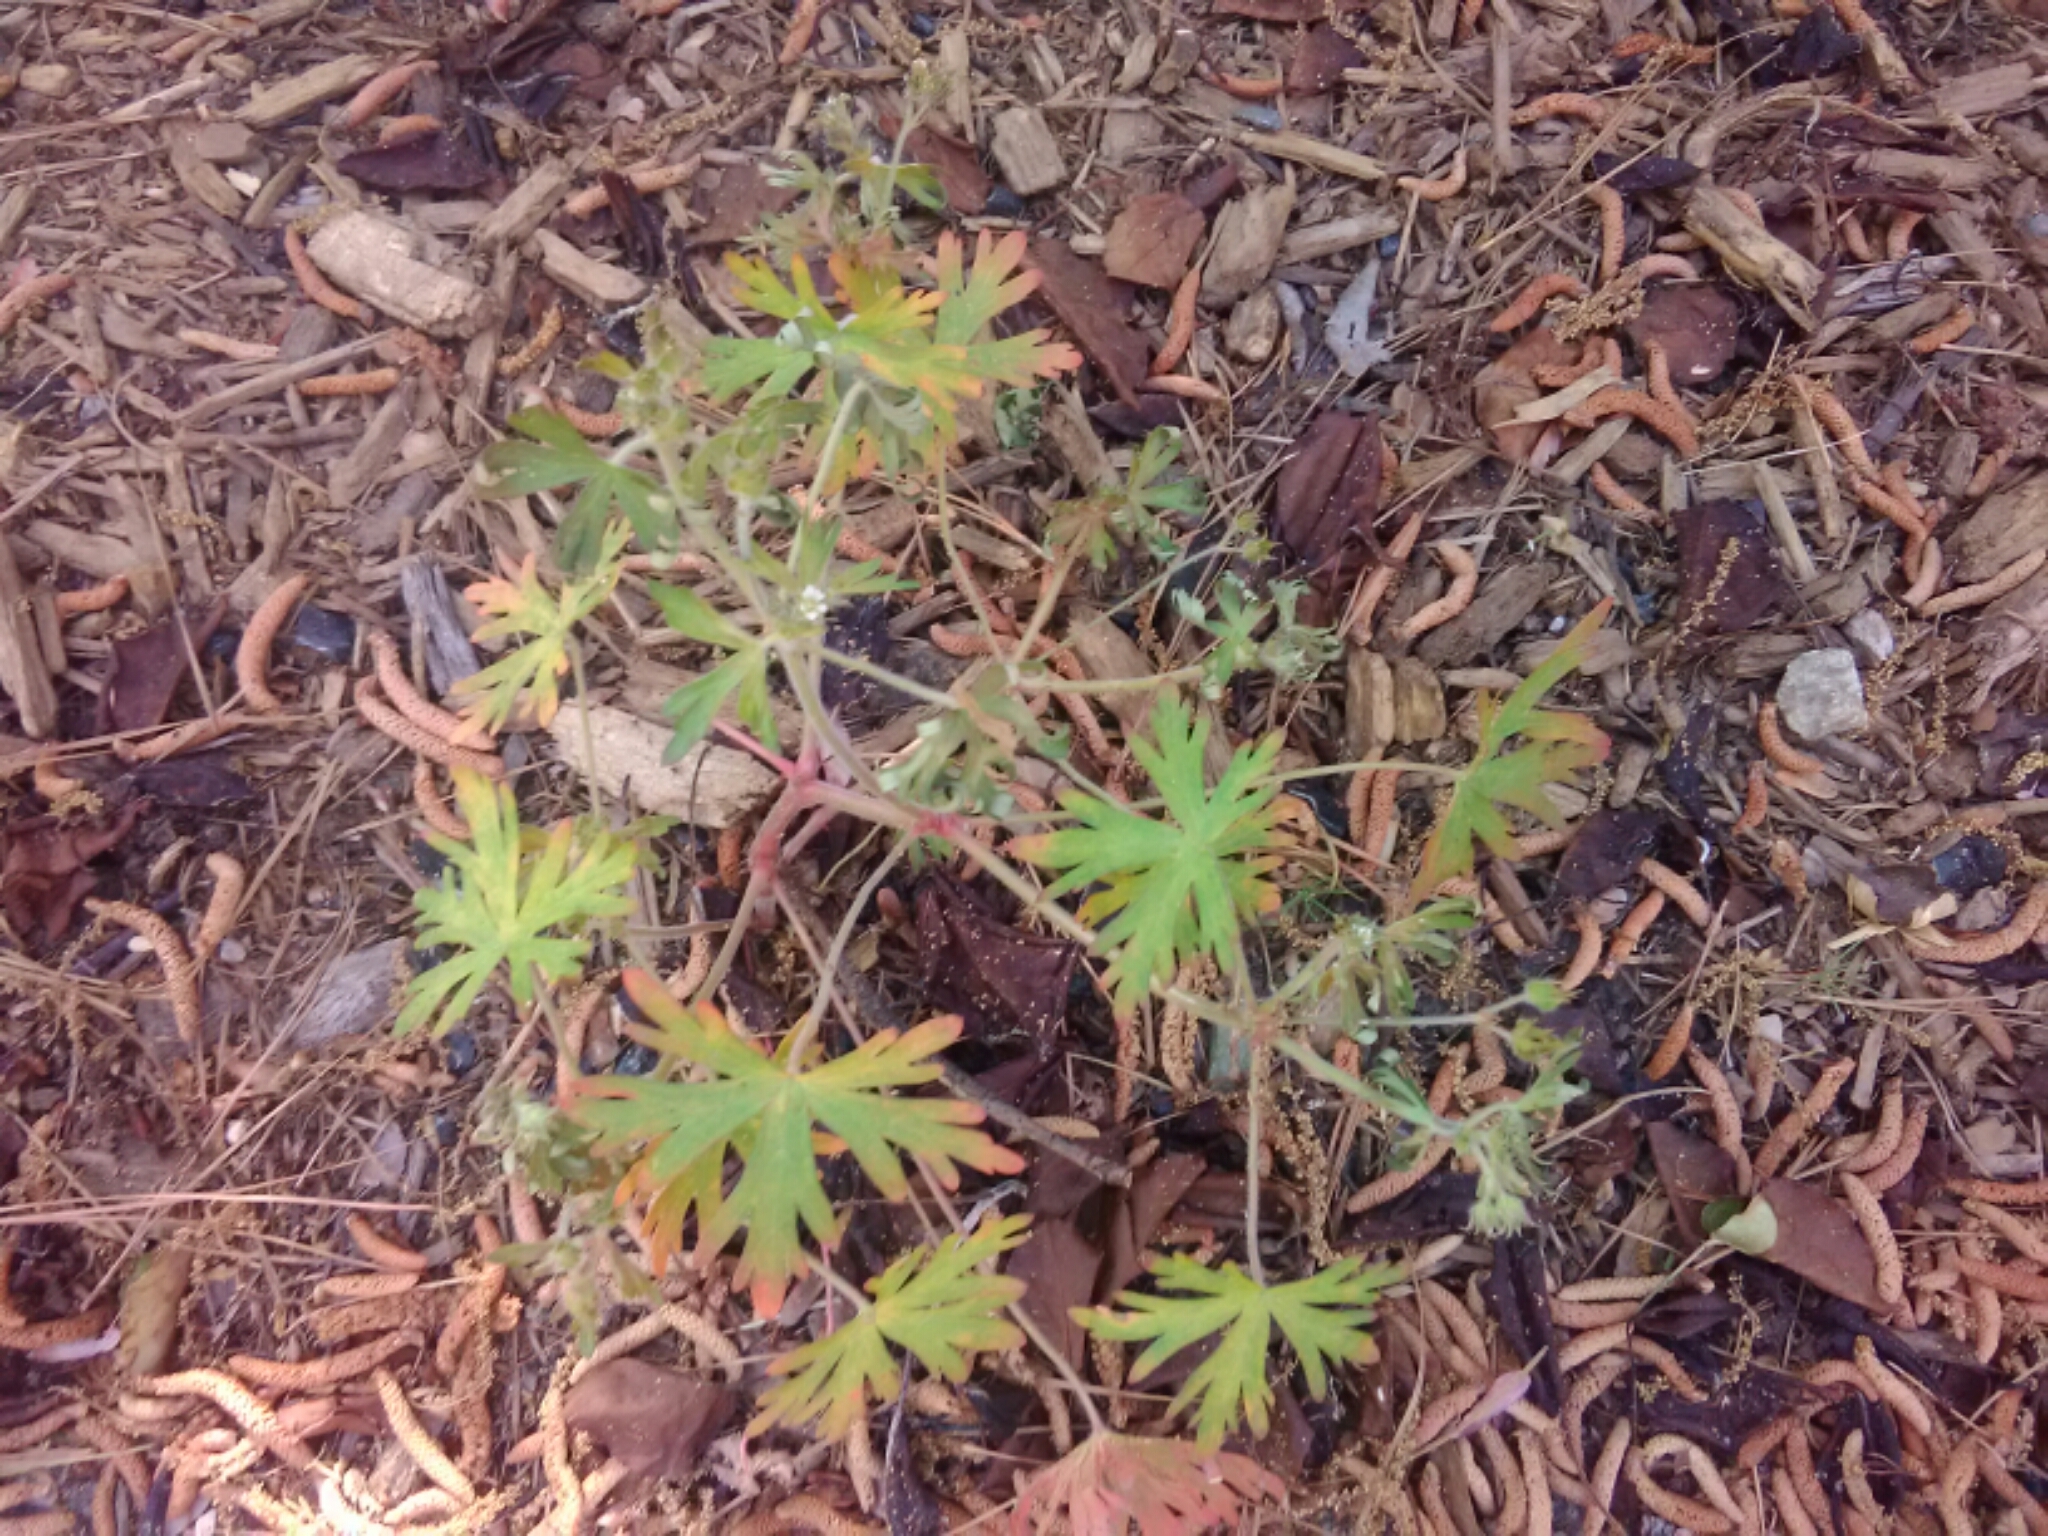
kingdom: Plantae
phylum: Tracheophyta
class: Magnoliopsida
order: Geraniales
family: Geraniaceae
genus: Geranium
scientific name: Geranium carolinianum
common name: Carolina crane's-bill
